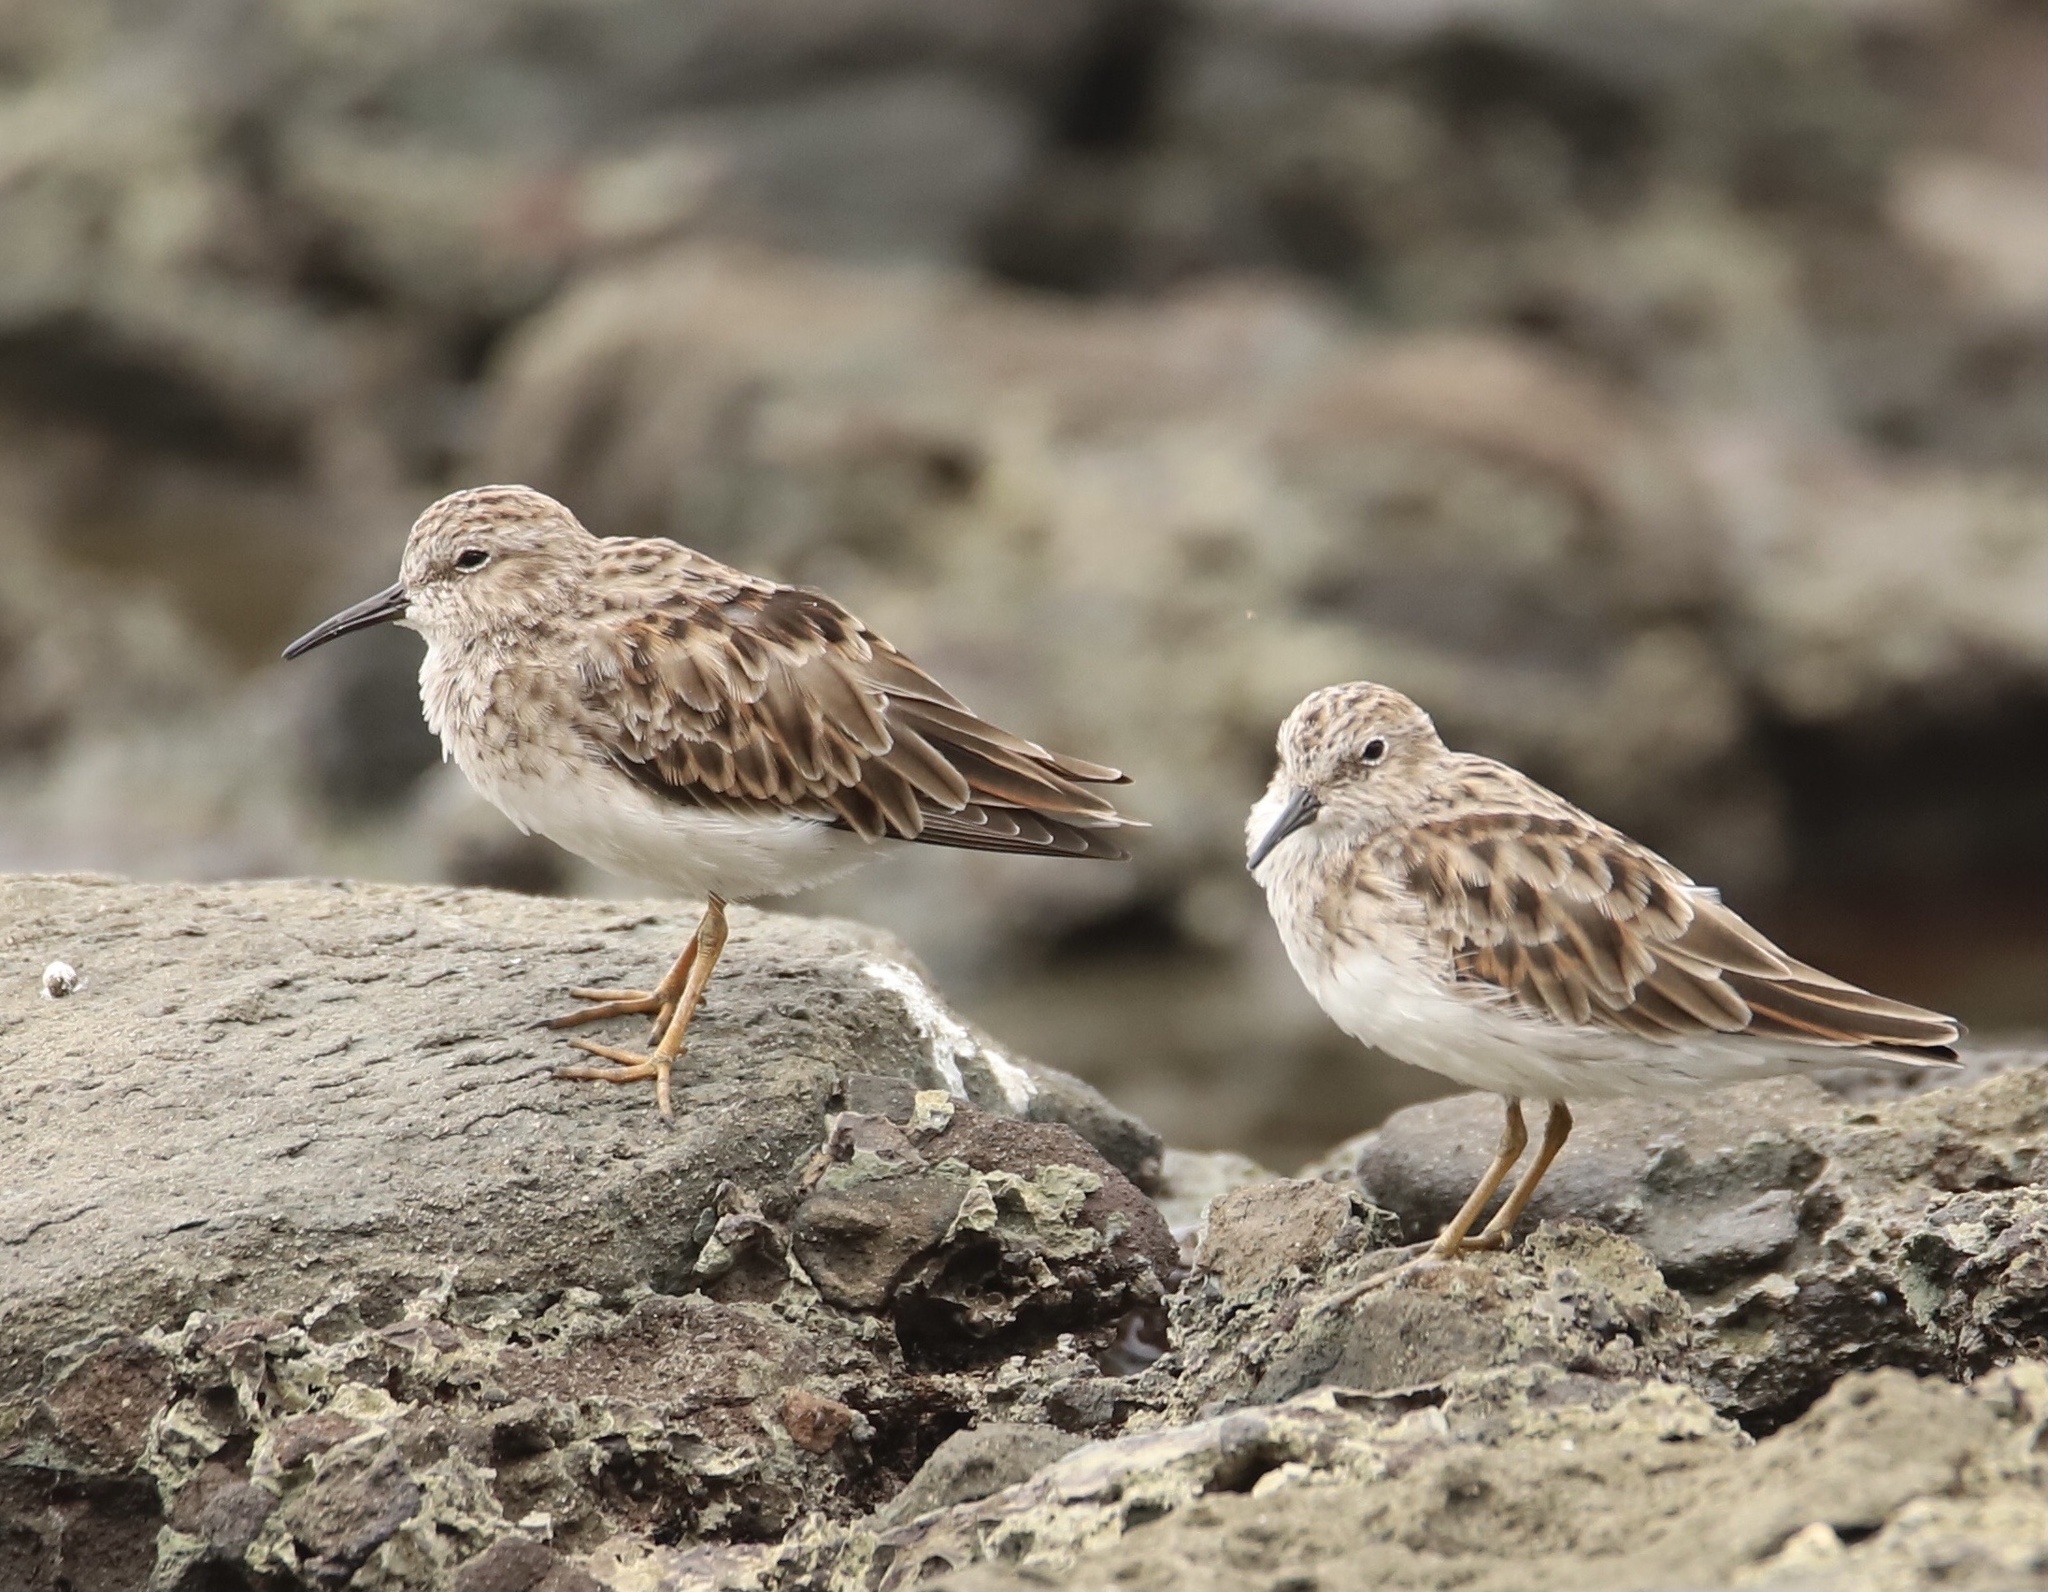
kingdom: Animalia
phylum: Chordata
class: Aves
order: Charadriiformes
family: Scolopacidae
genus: Calidris
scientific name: Calidris minutilla
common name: Least sandpiper
